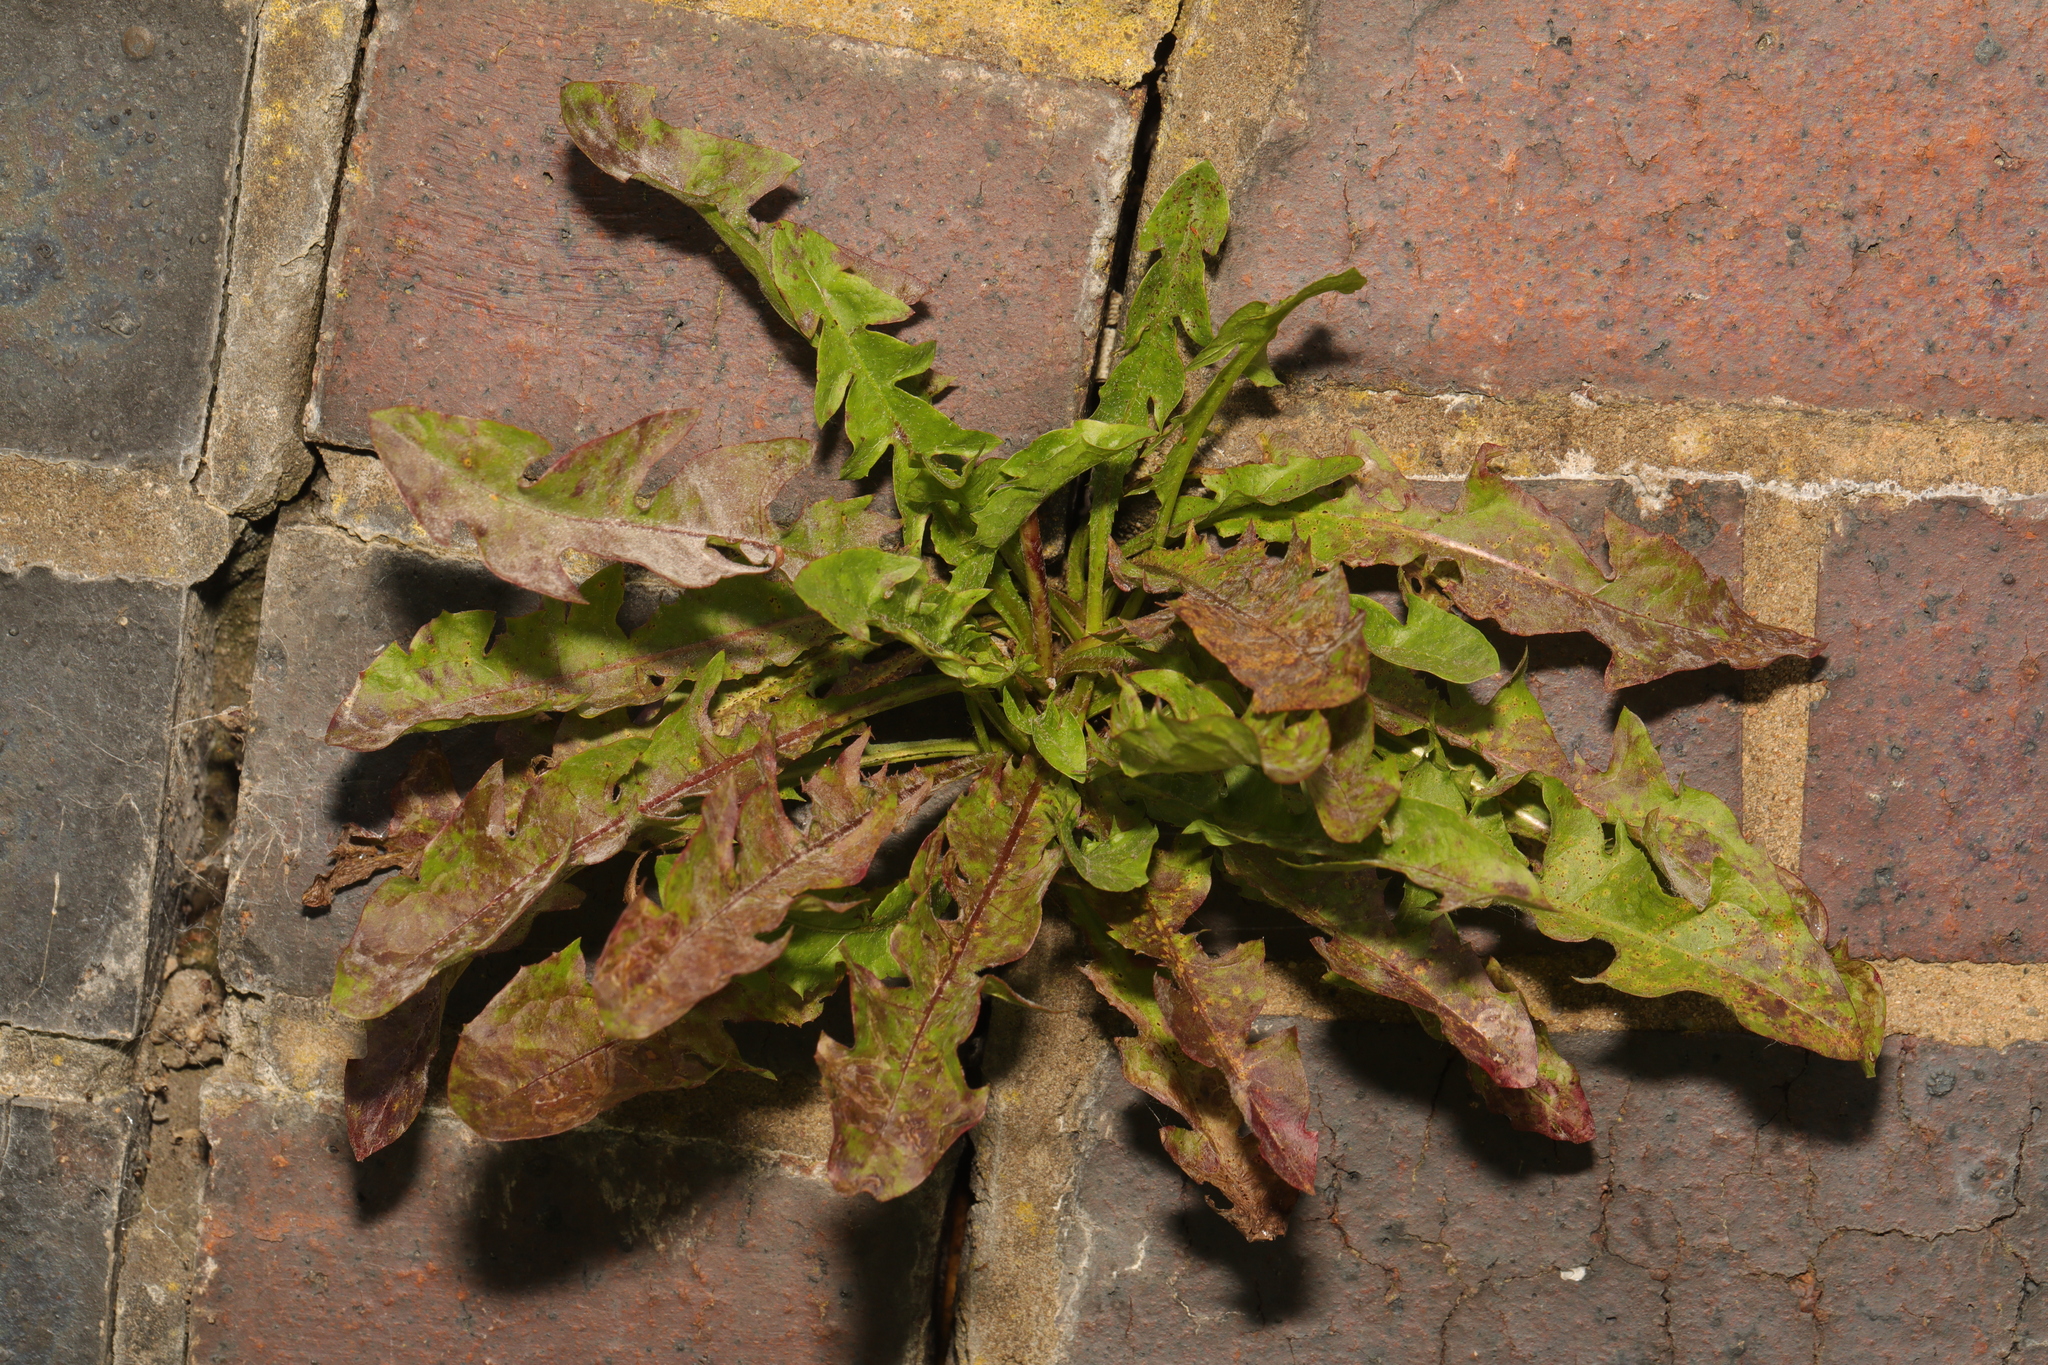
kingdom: Plantae
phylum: Tracheophyta
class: Magnoliopsida
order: Asterales
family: Asteraceae
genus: Taraxacum
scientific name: Taraxacum officinale
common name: Common dandelion
